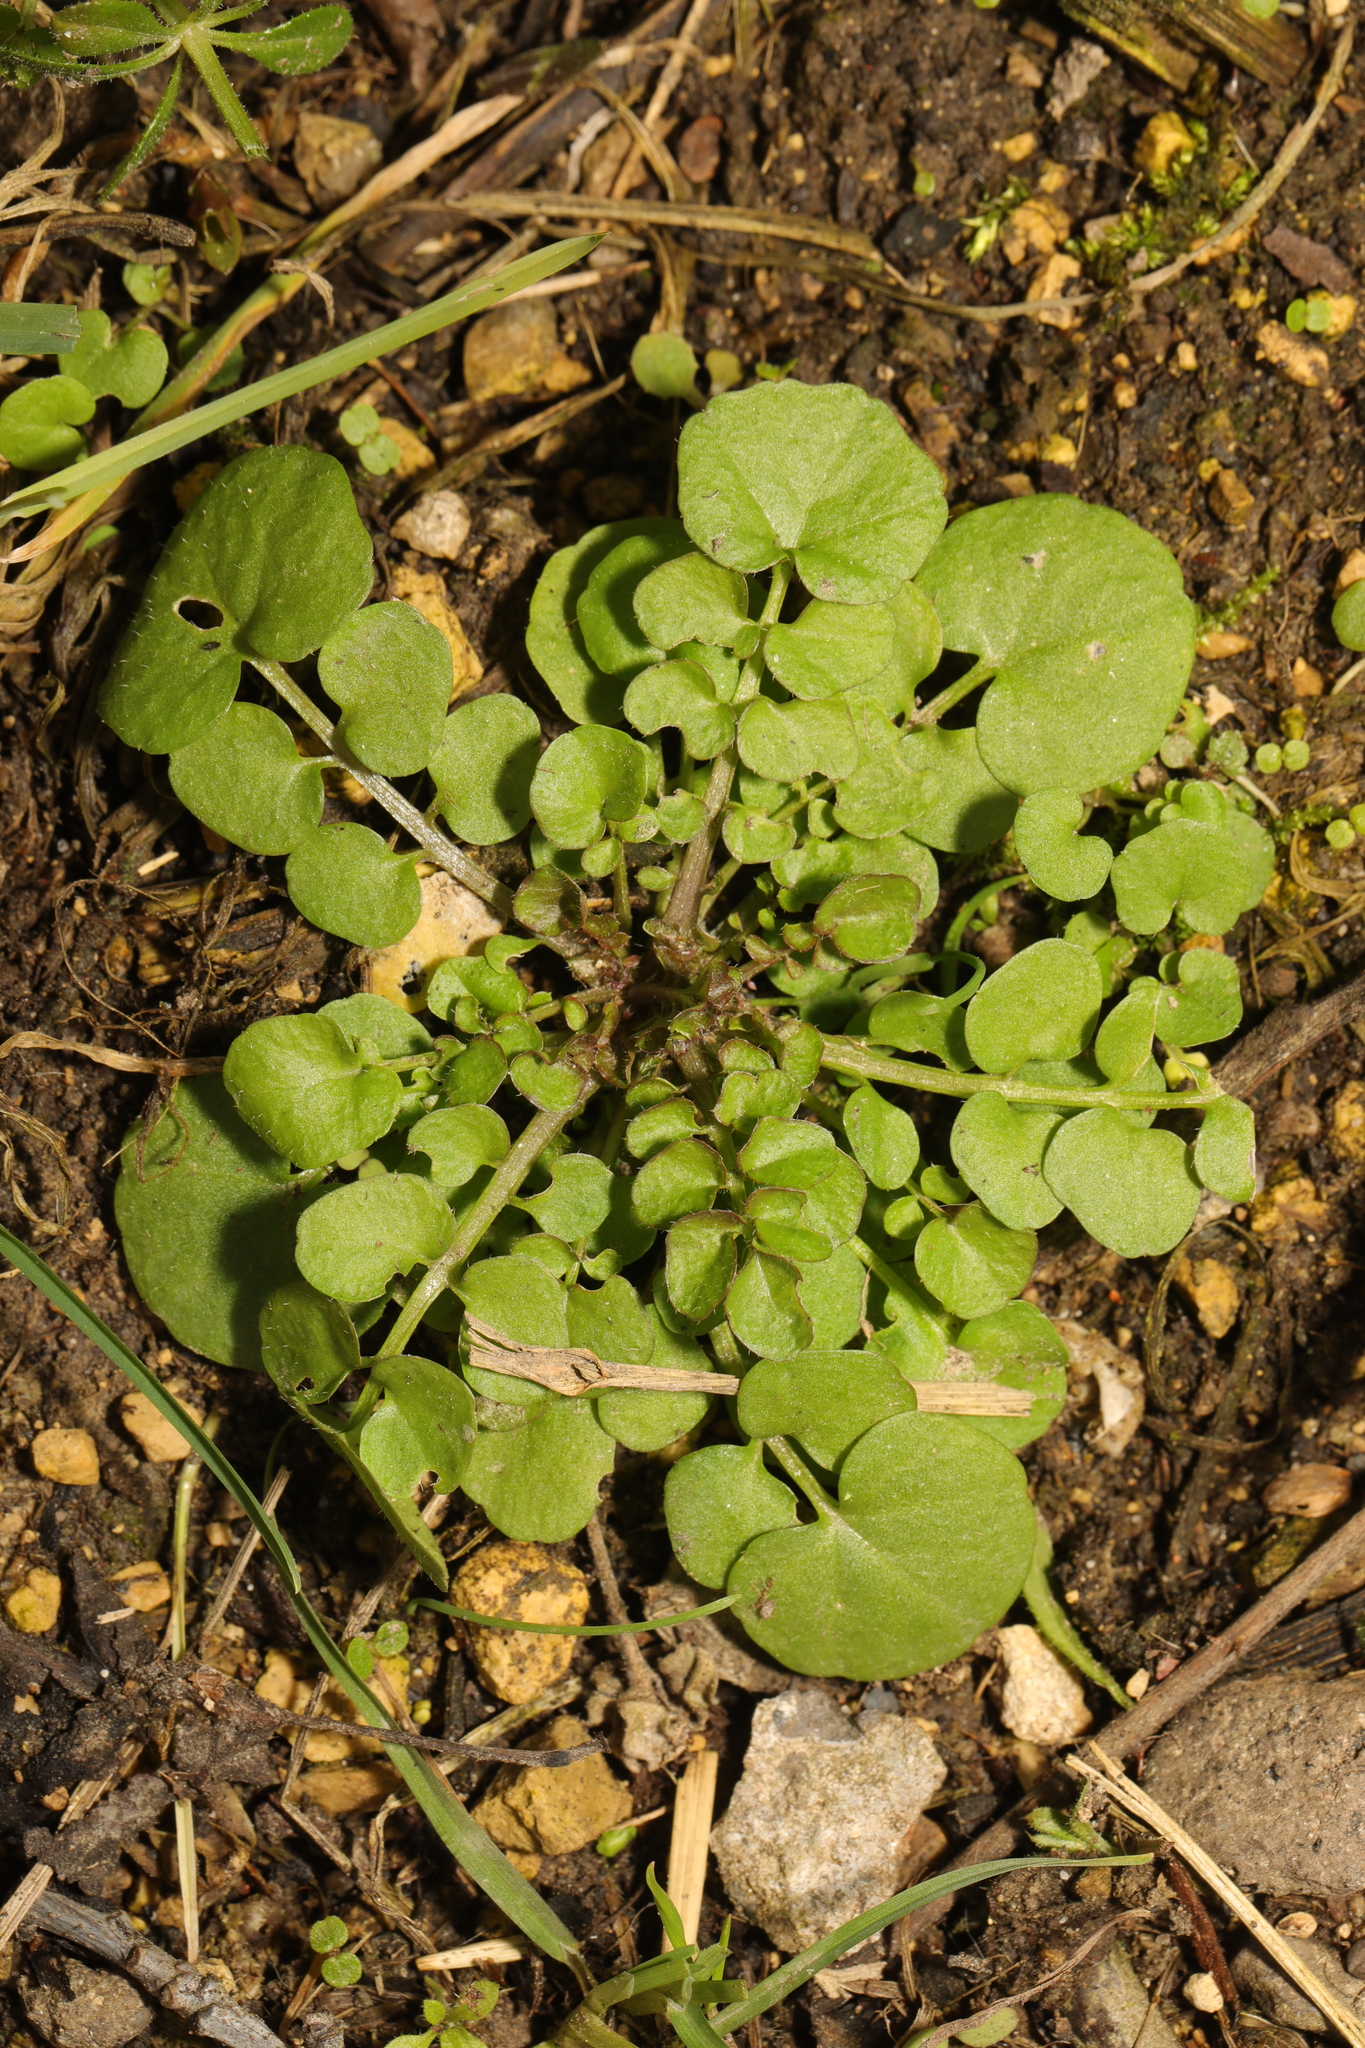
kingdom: Plantae
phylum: Tracheophyta
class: Magnoliopsida
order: Brassicales
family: Brassicaceae
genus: Cardamine
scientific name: Cardamine hirsuta
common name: Hairy bittercress
